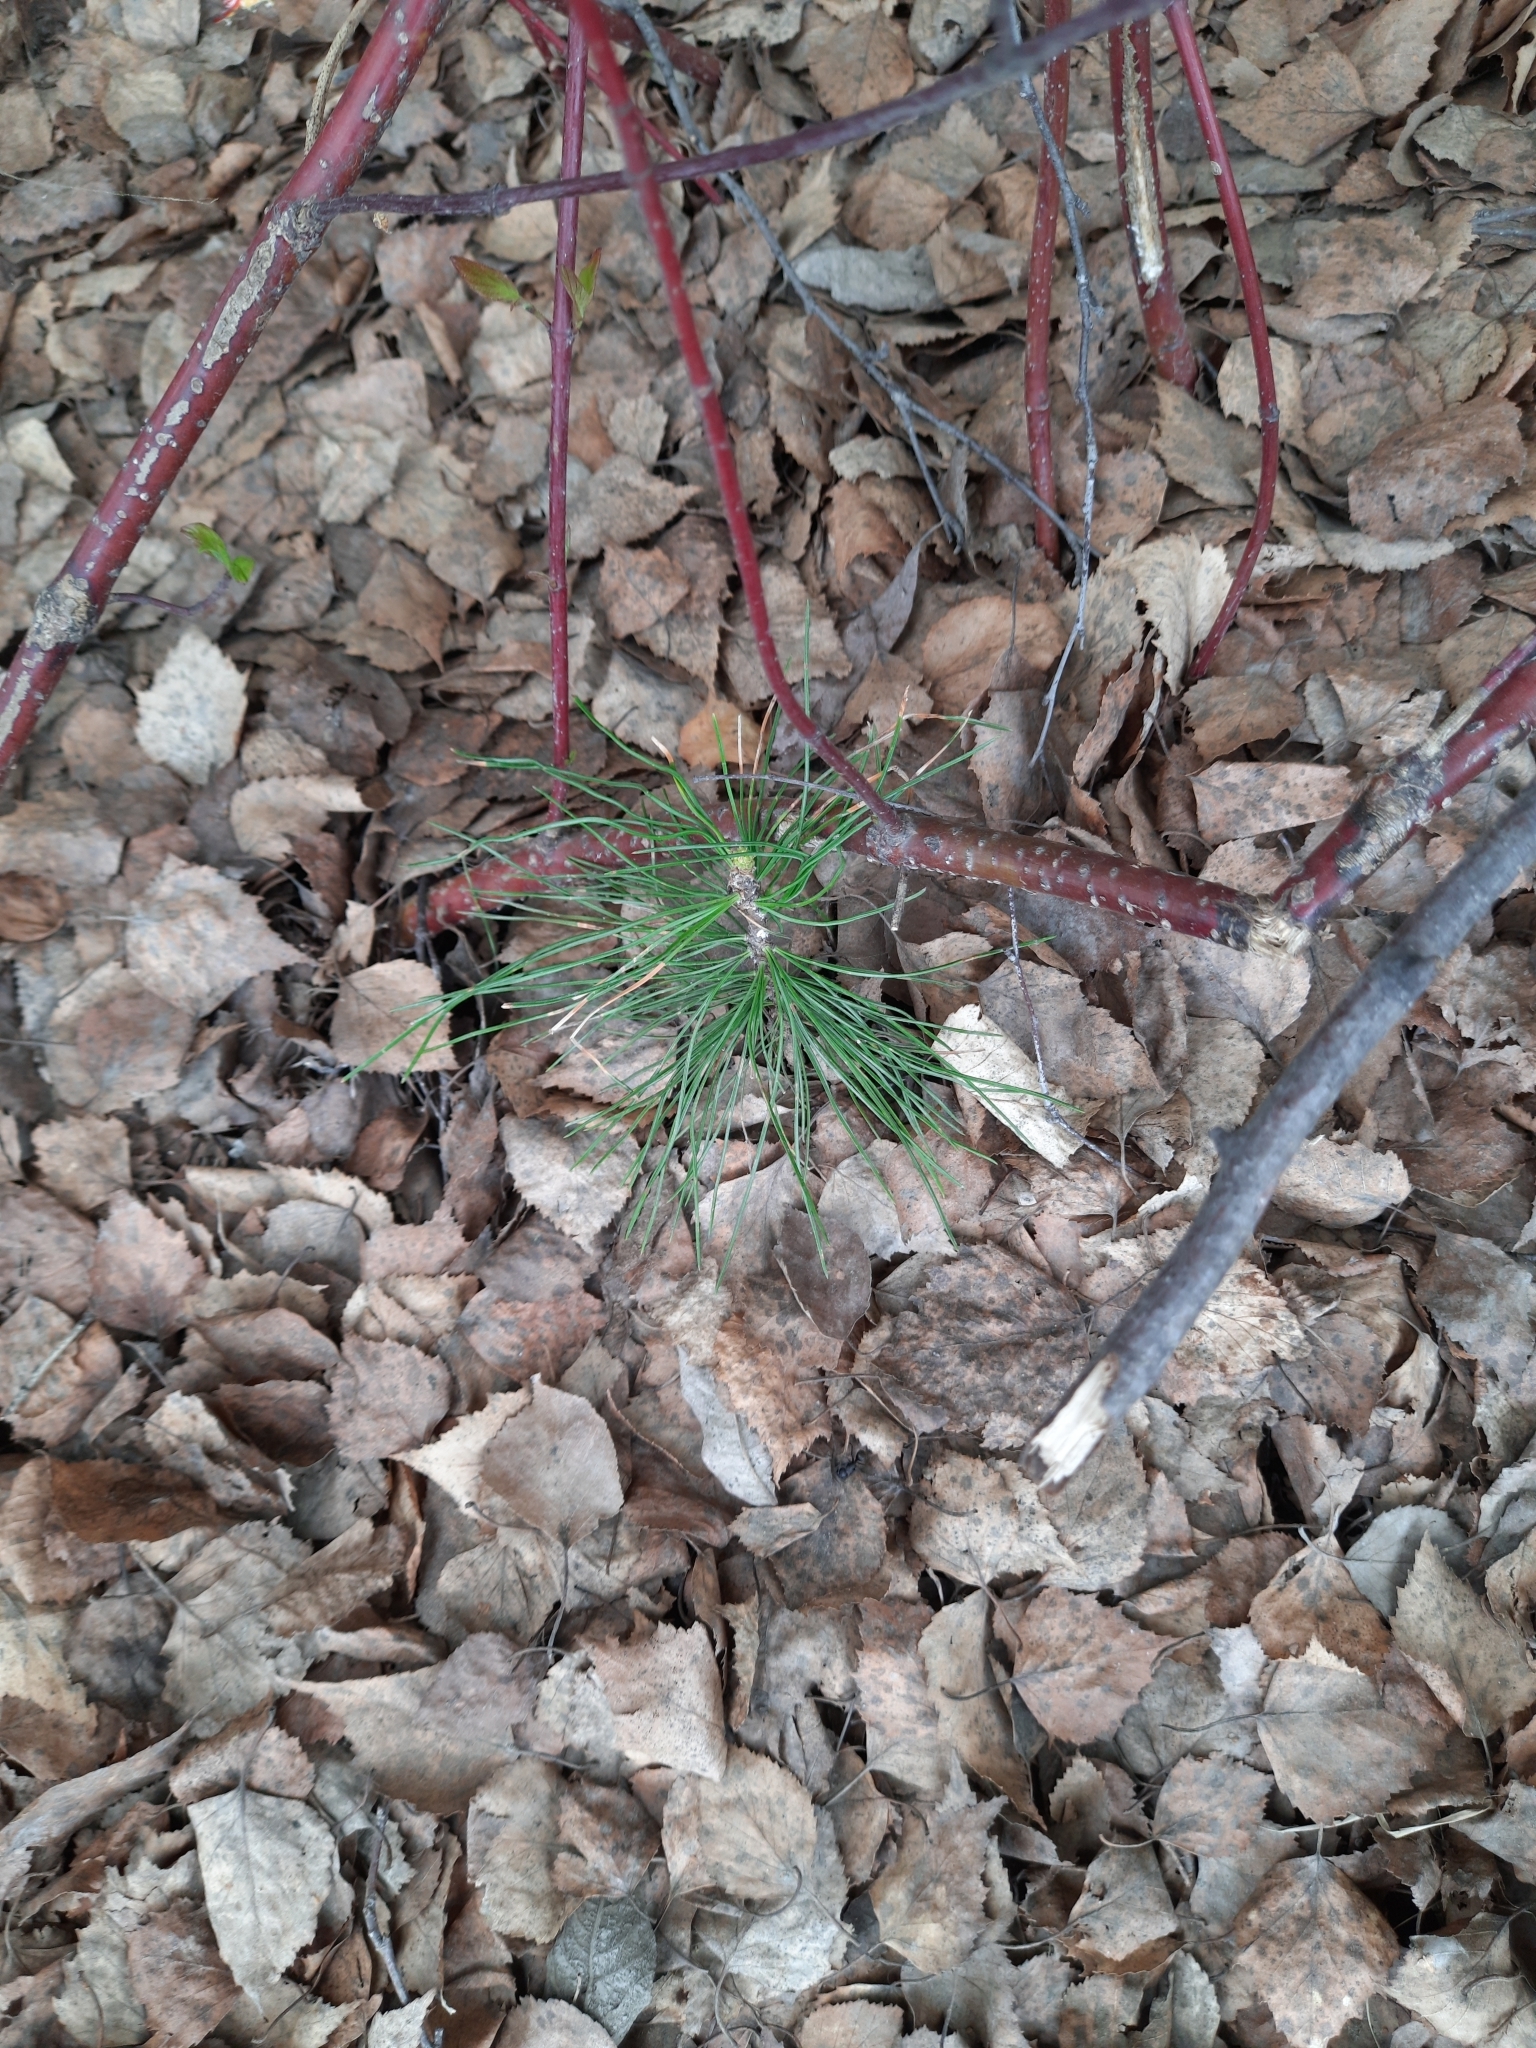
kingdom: Plantae
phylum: Tracheophyta
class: Pinopsida
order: Pinales
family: Pinaceae
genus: Pinus
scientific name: Pinus sibirica
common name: Siberian pine
